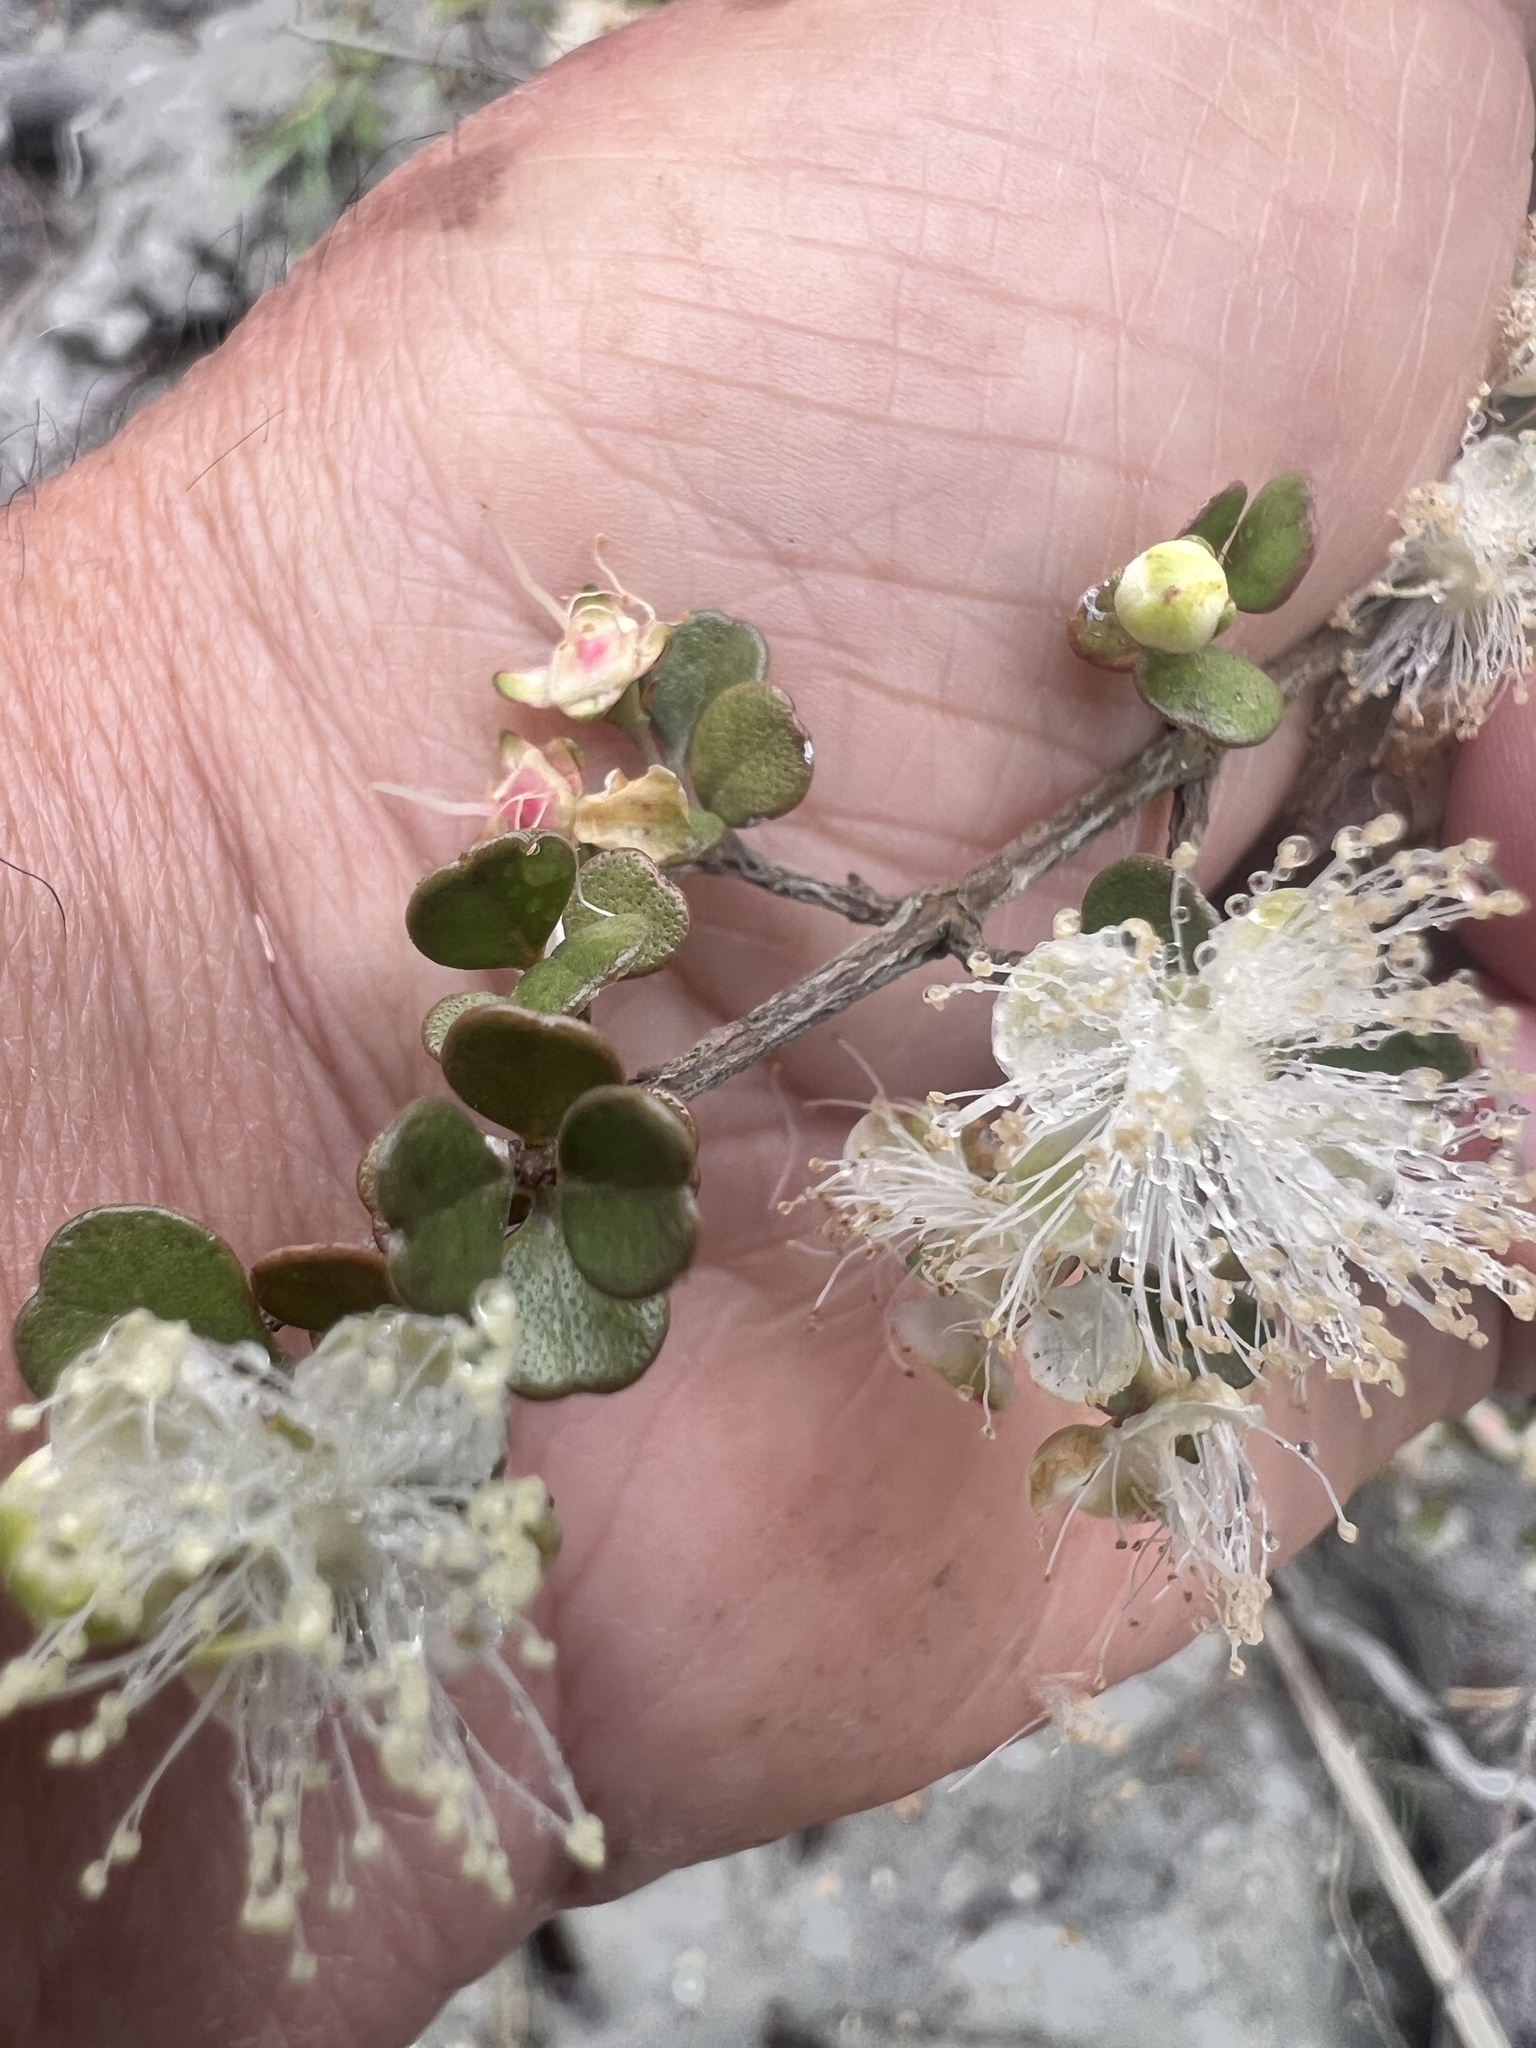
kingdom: Plantae
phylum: Tracheophyta
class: Magnoliopsida
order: Myrtales
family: Myrtaceae
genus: Lophomyrtus
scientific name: Lophomyrtus obcordata
